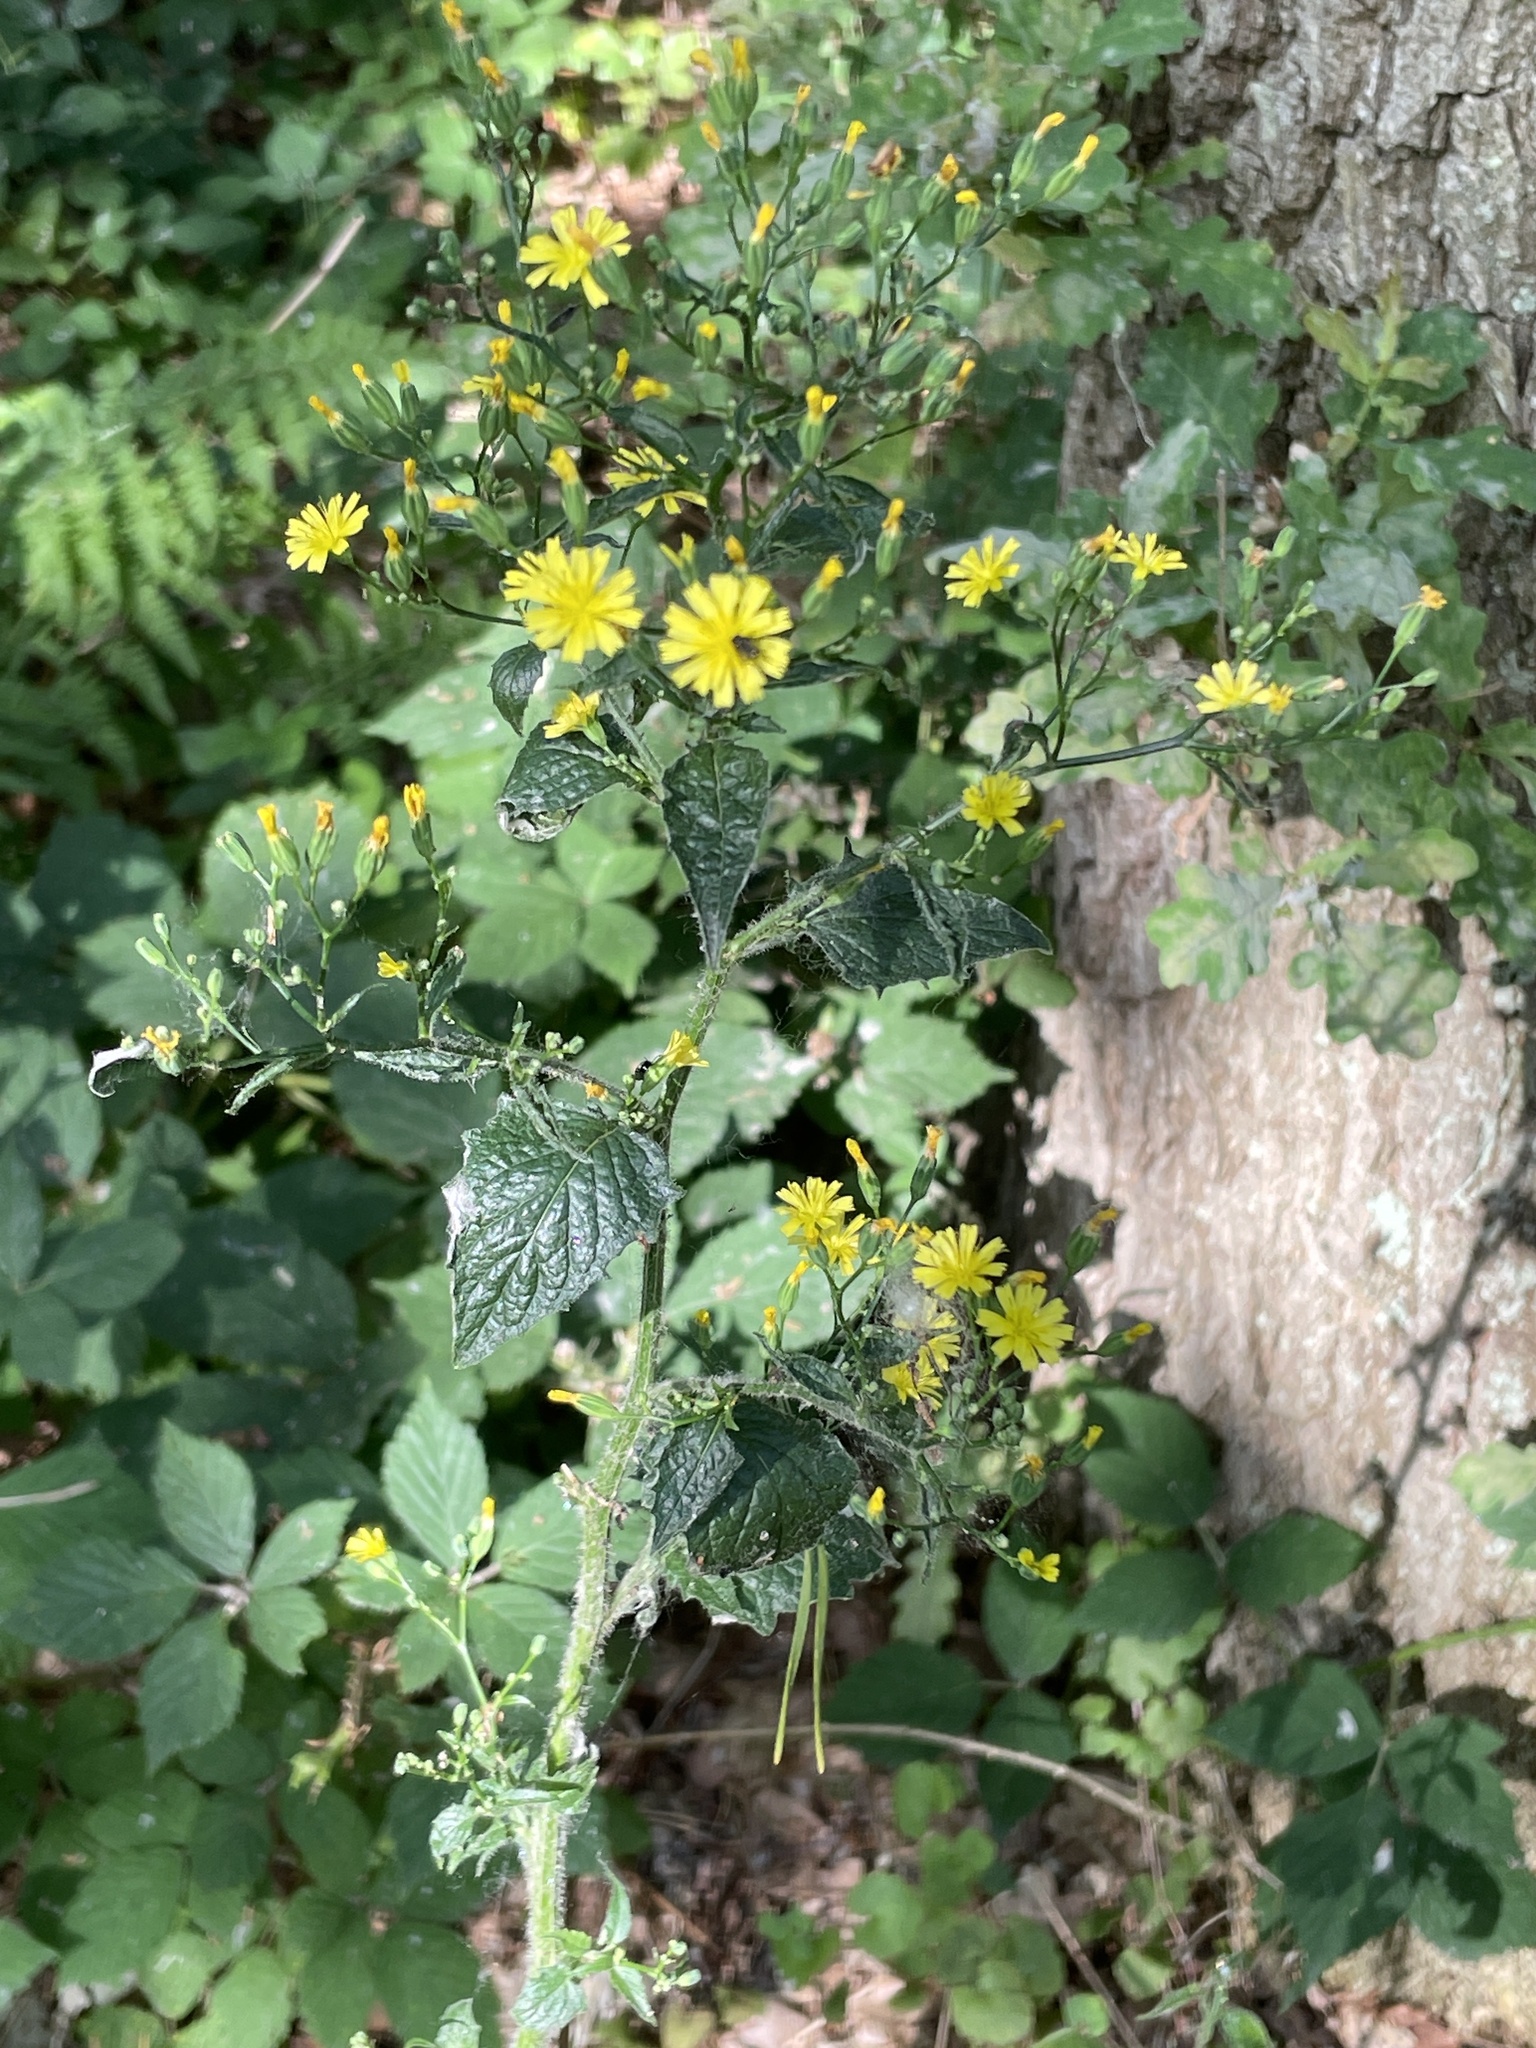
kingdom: Plantae
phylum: Tracheophyta
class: Magnoliopsida
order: Asterales
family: Asteraceae
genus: Lapsana
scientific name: Lapsana communis
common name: Nipplewort
